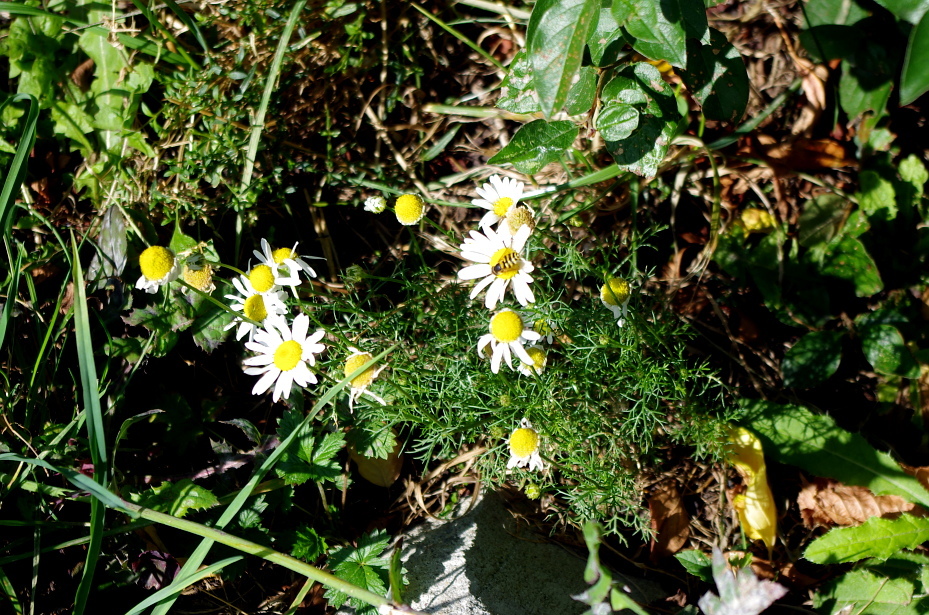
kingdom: Plantae
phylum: Tracheophyta
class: Magnoliopsida
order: Asterales
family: Asteraceae
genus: Tripleurospermum
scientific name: Tripleurospermum inodorum
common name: Scentless mayweed
